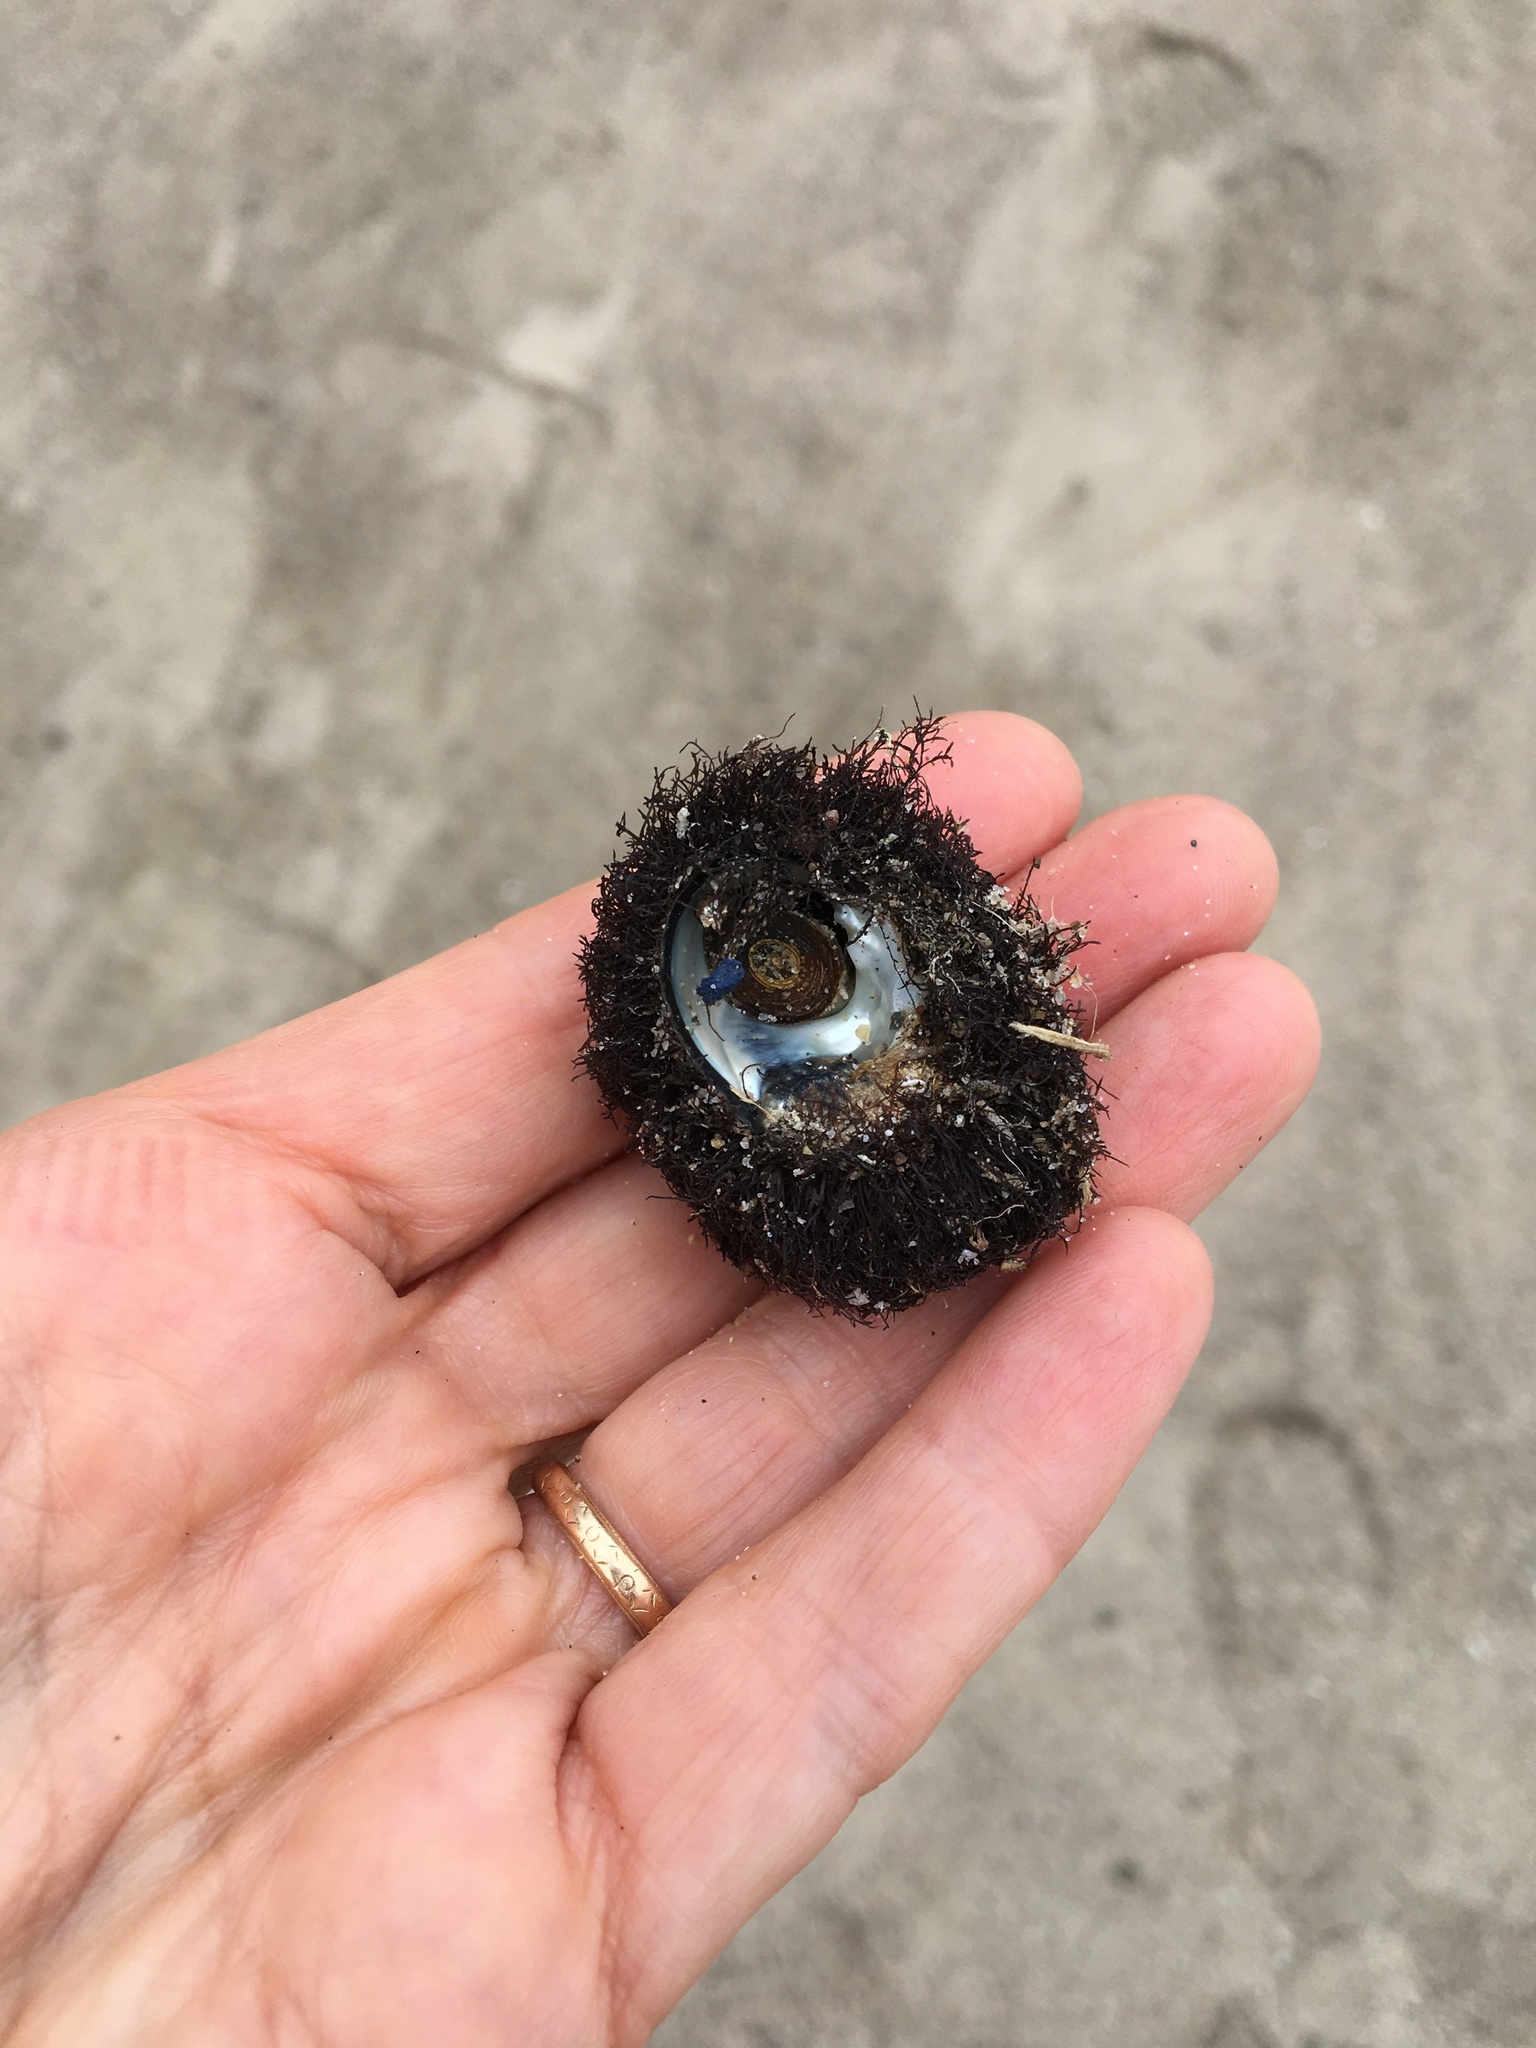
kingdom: Animalia
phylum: Mollusca
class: Gastropoda
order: Trochida
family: Tegulidae
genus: Tegula
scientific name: Tegula funebralis
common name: Black tegula
